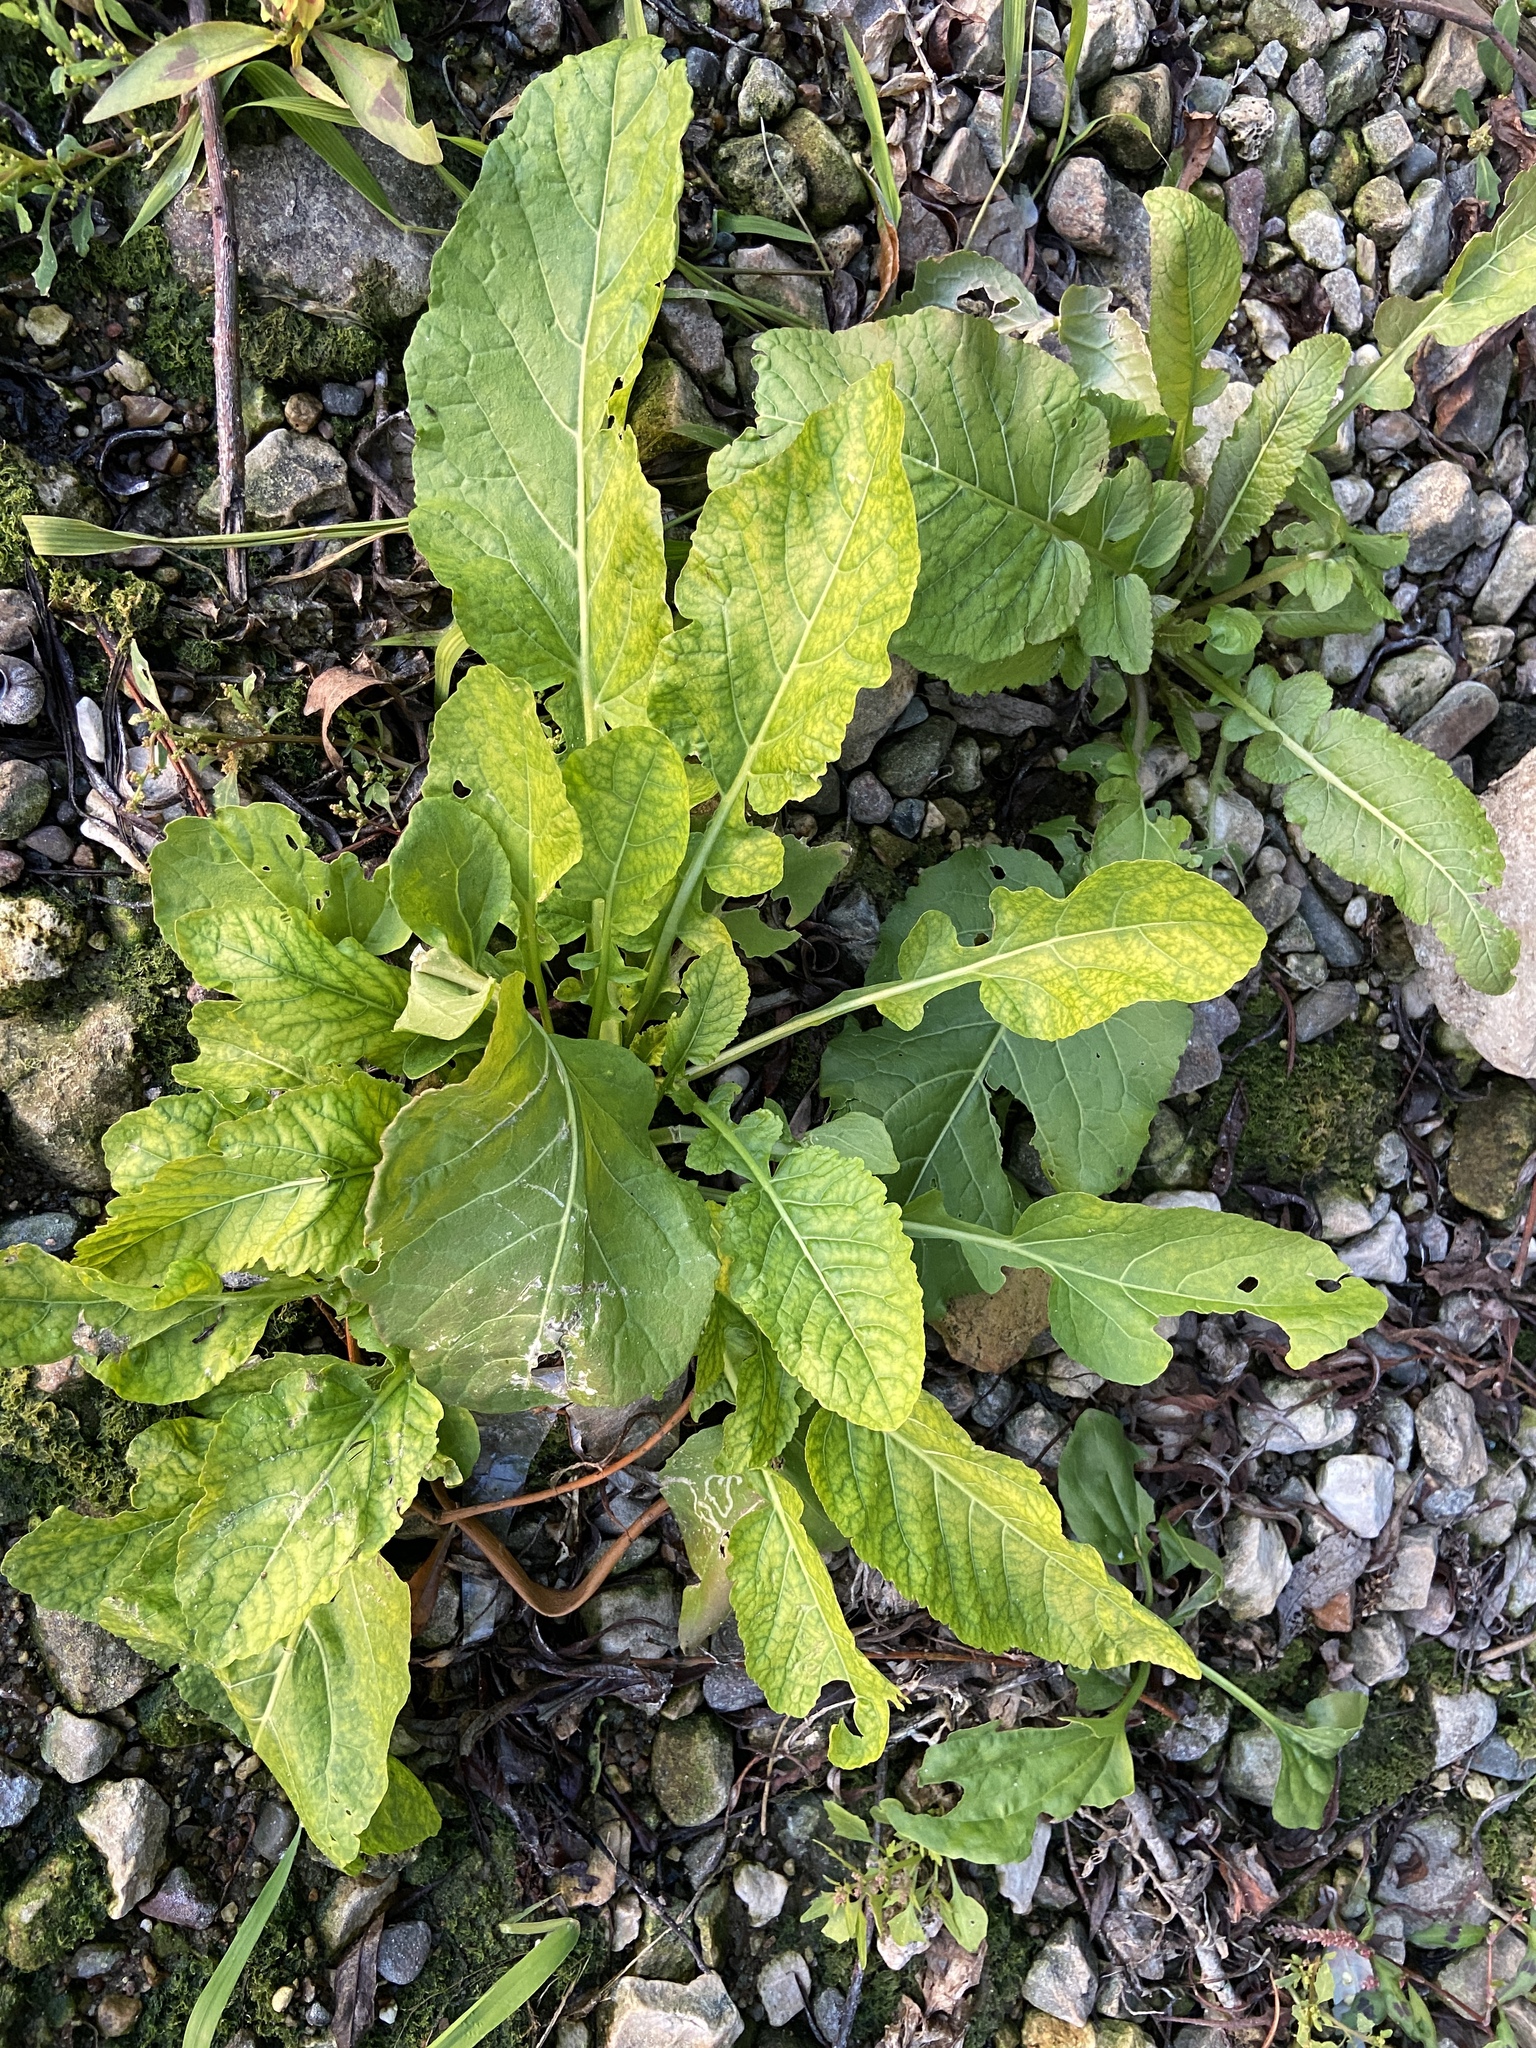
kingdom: Plantae
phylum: Tracheophyta
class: Magnoliopsida
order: Brassicales
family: Brassicaceae
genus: Rorippa
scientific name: Rorippa amphibia
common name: Great yellow-cress
